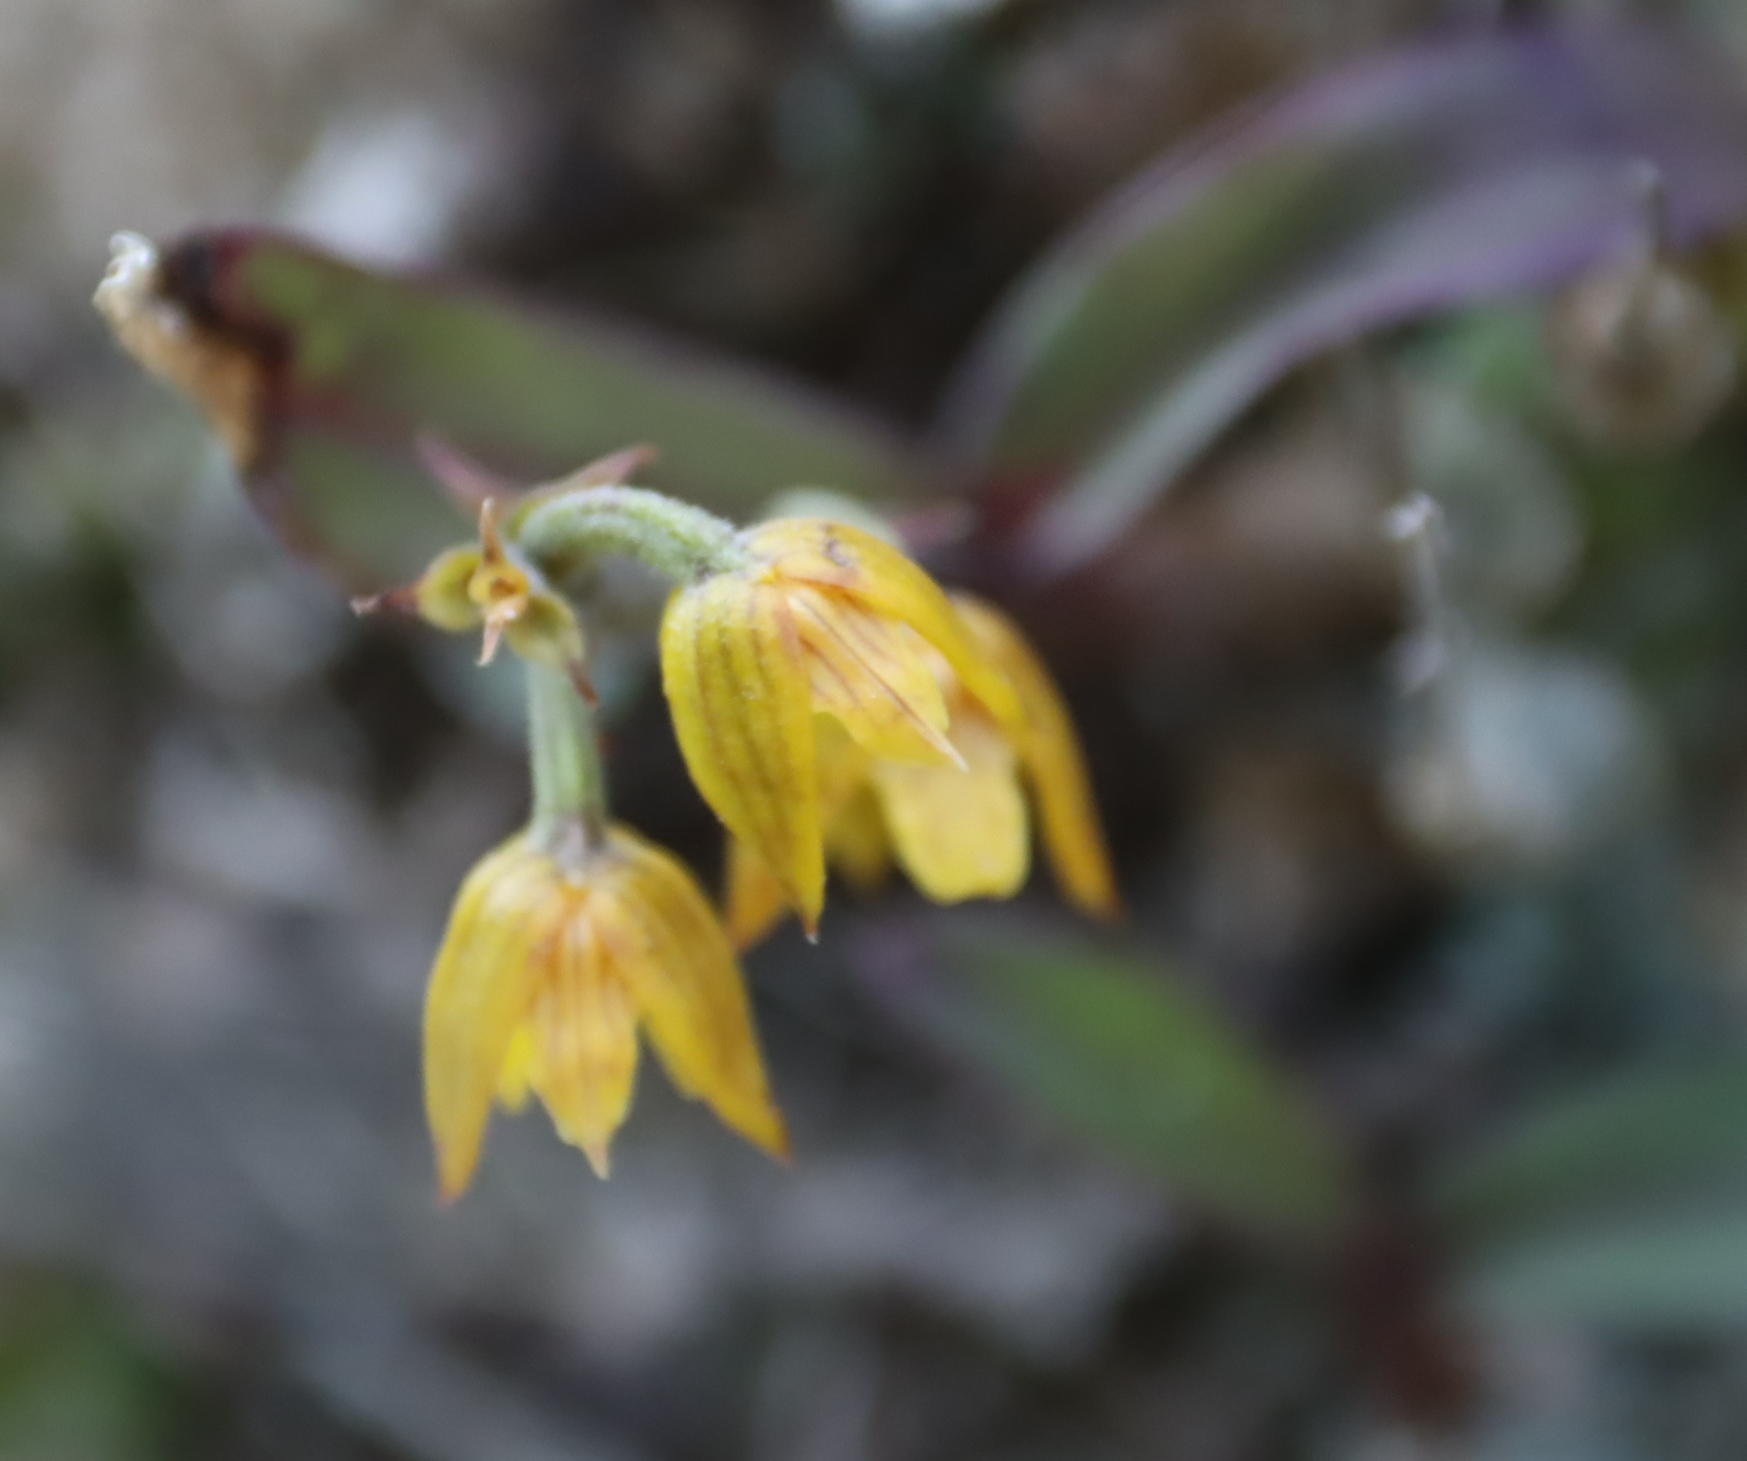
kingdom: Plantae
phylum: Tracheophyta
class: Liliopsida
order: Asparagales
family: Orchidaceae
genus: Polystachya
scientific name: Polystachya ngomensis
